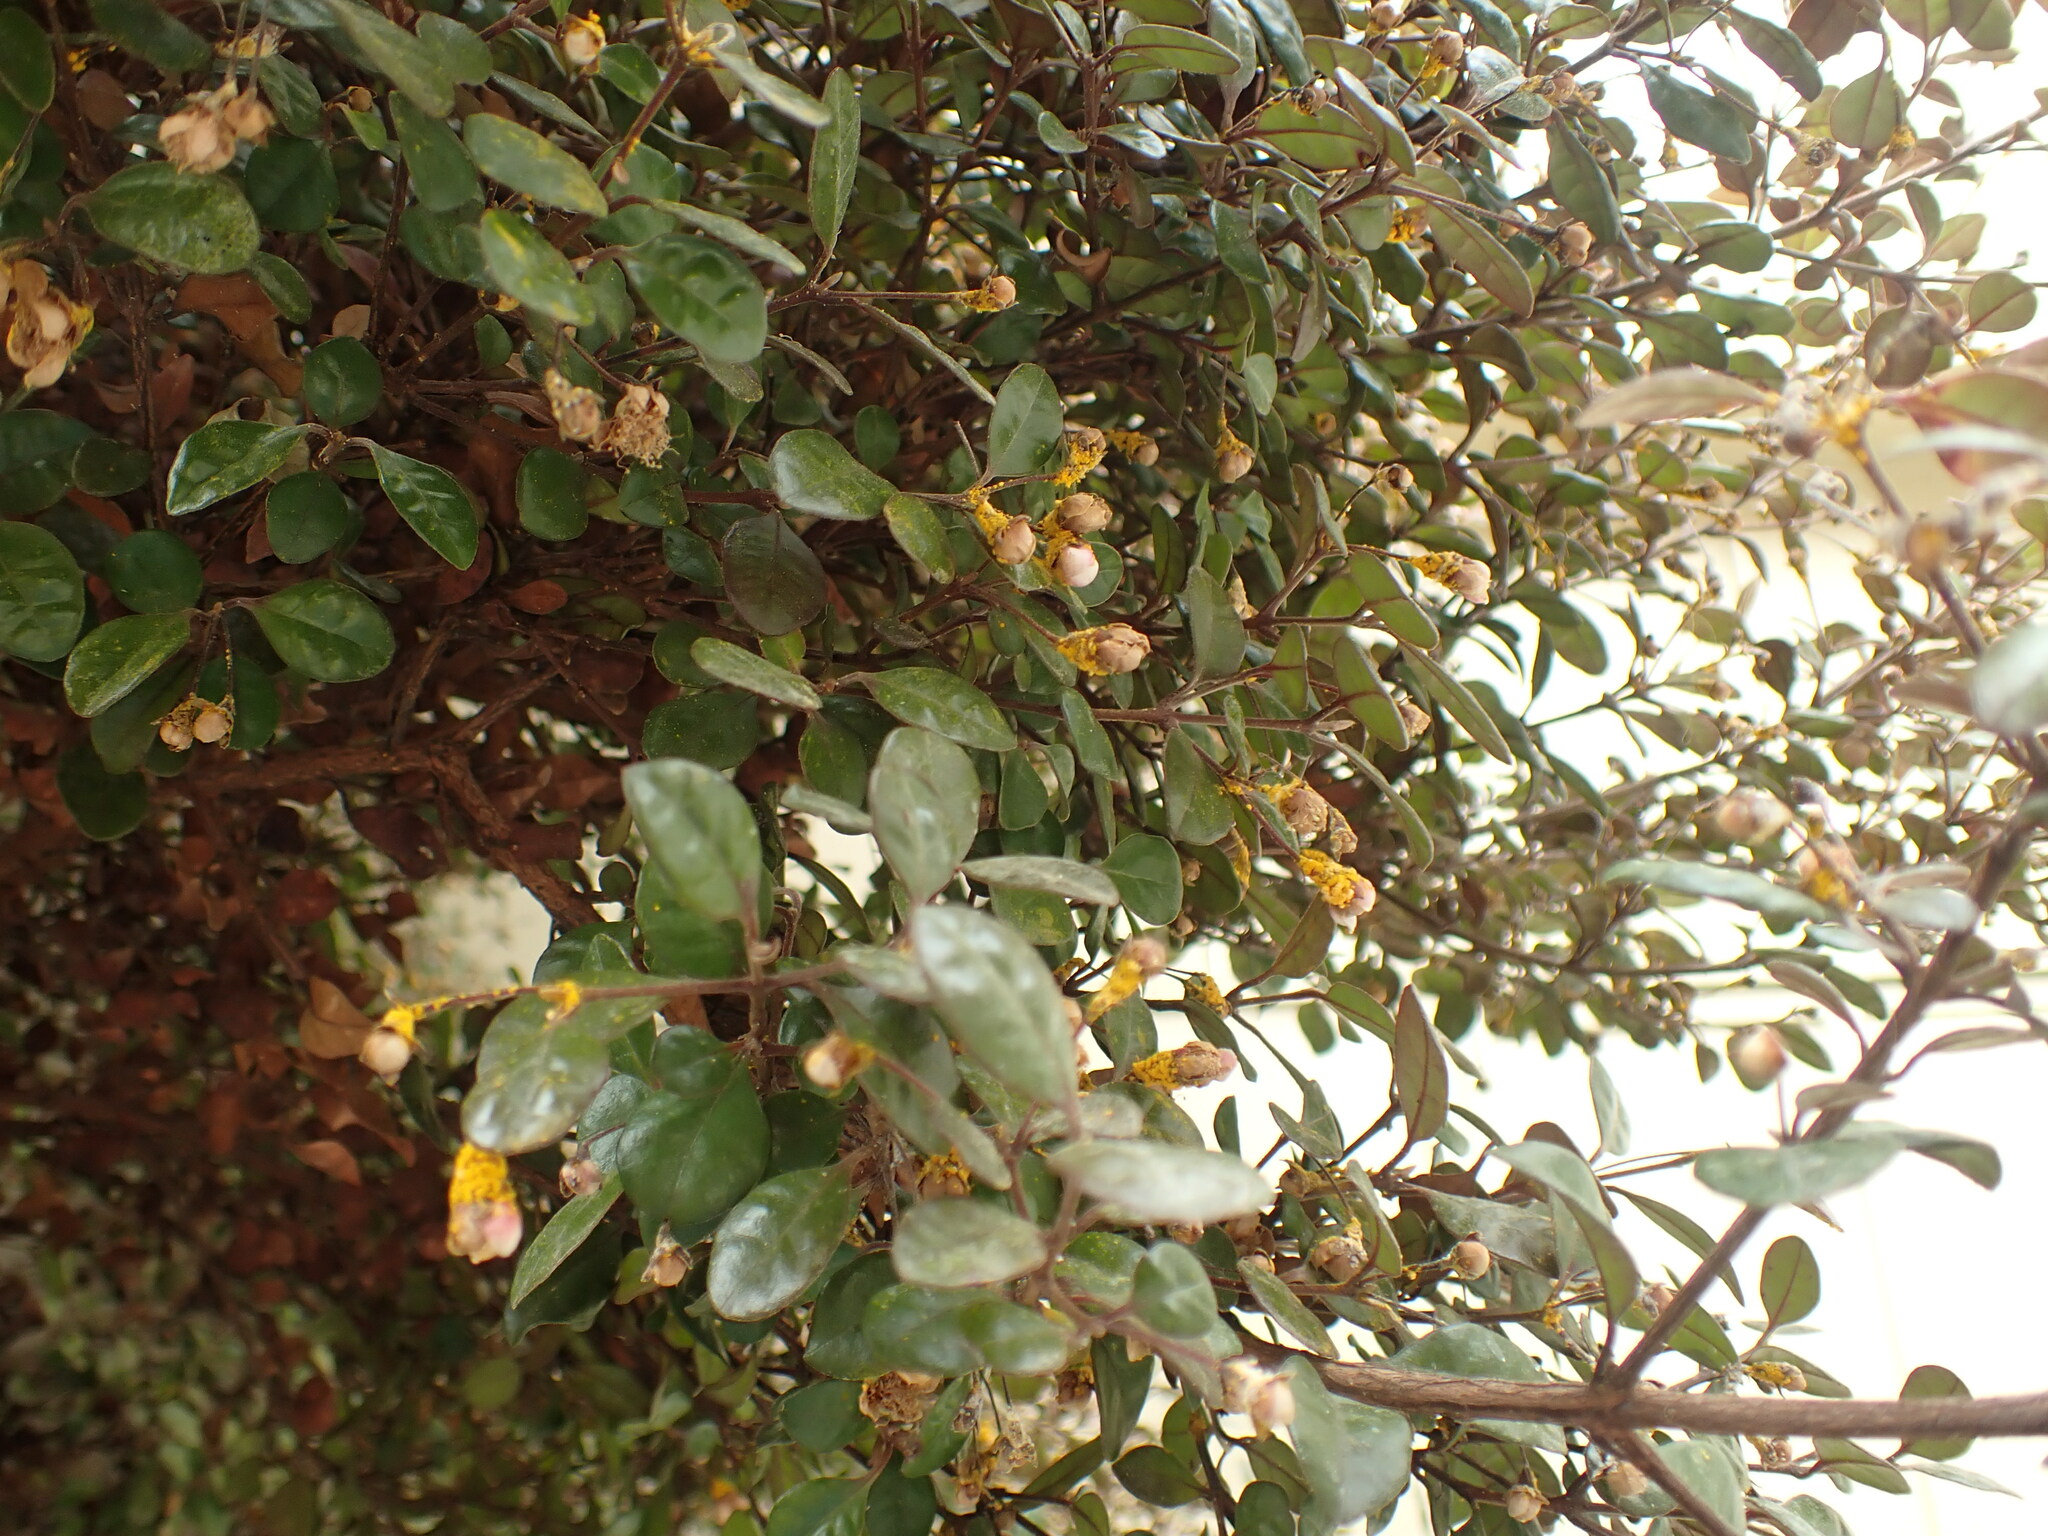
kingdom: Fungi
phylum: Basidiomycota
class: Pucciniomycetes
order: Pucciniales
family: Sphaerophragmiaceae
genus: Austropuccinia
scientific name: Austropuccinia psidii
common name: Myrtle rust
